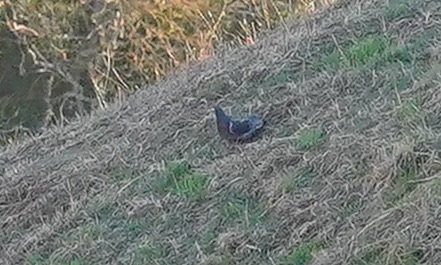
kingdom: Animalia
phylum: Chordata
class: Aves
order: Columbiformes
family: Columbidae
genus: Columba
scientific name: Columba livia
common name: Rock pigeon
